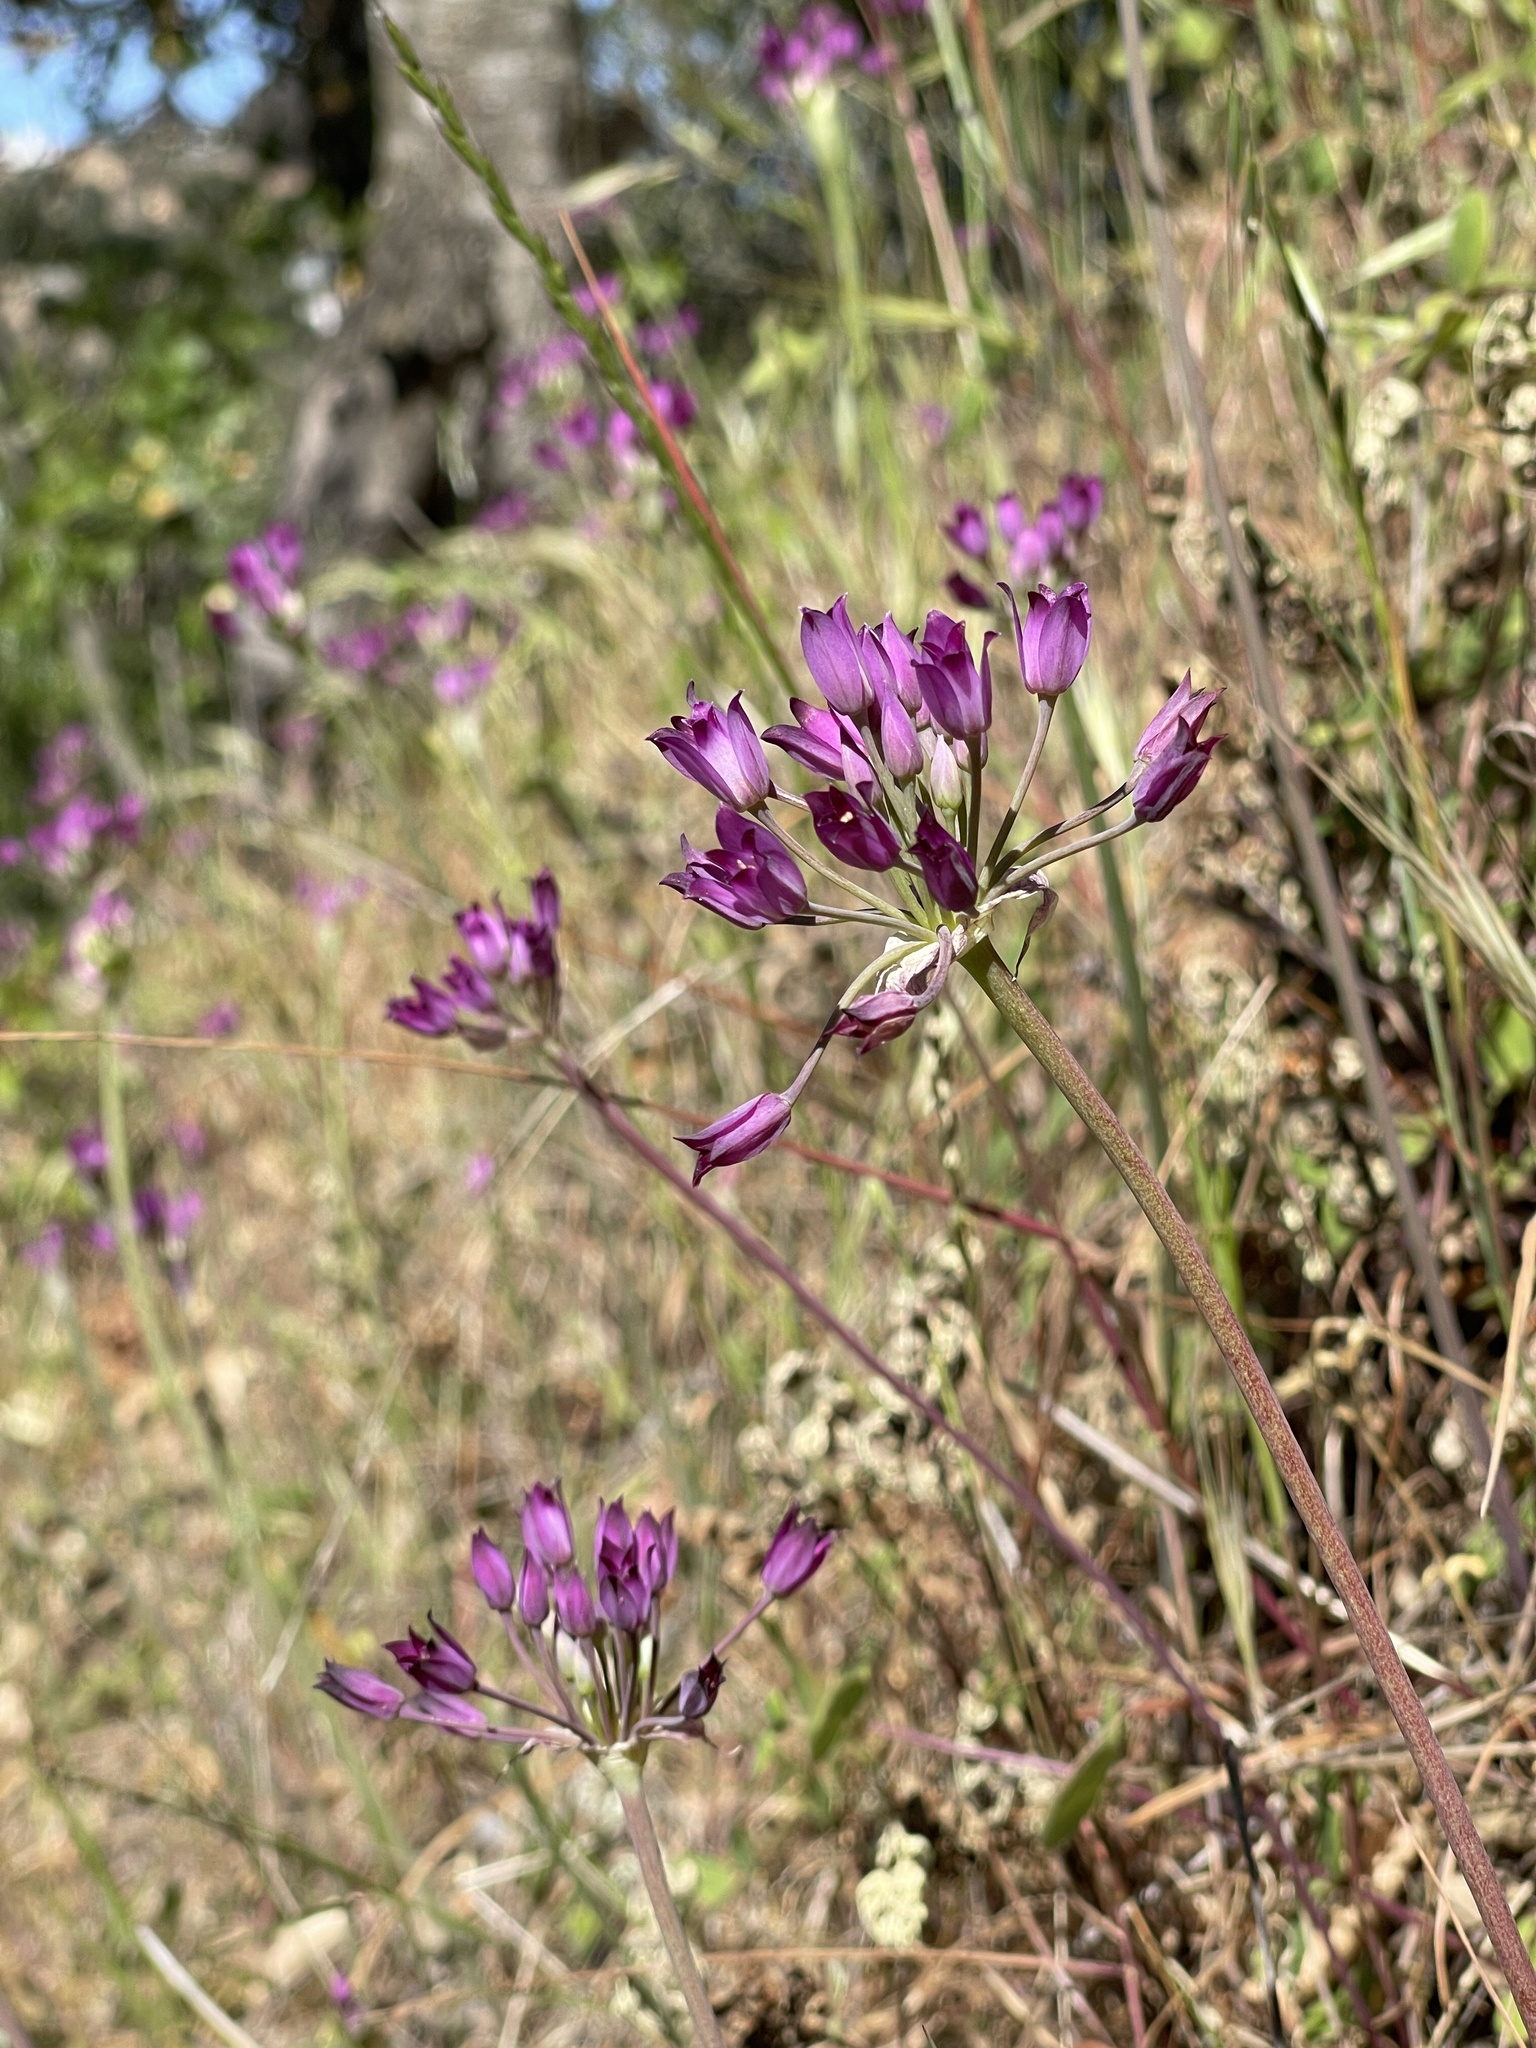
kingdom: Plantae
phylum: Tracheophyta
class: Liliopsida
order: Asparagales
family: Amaryllidaceae
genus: Allium
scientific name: Allium peninsulare
